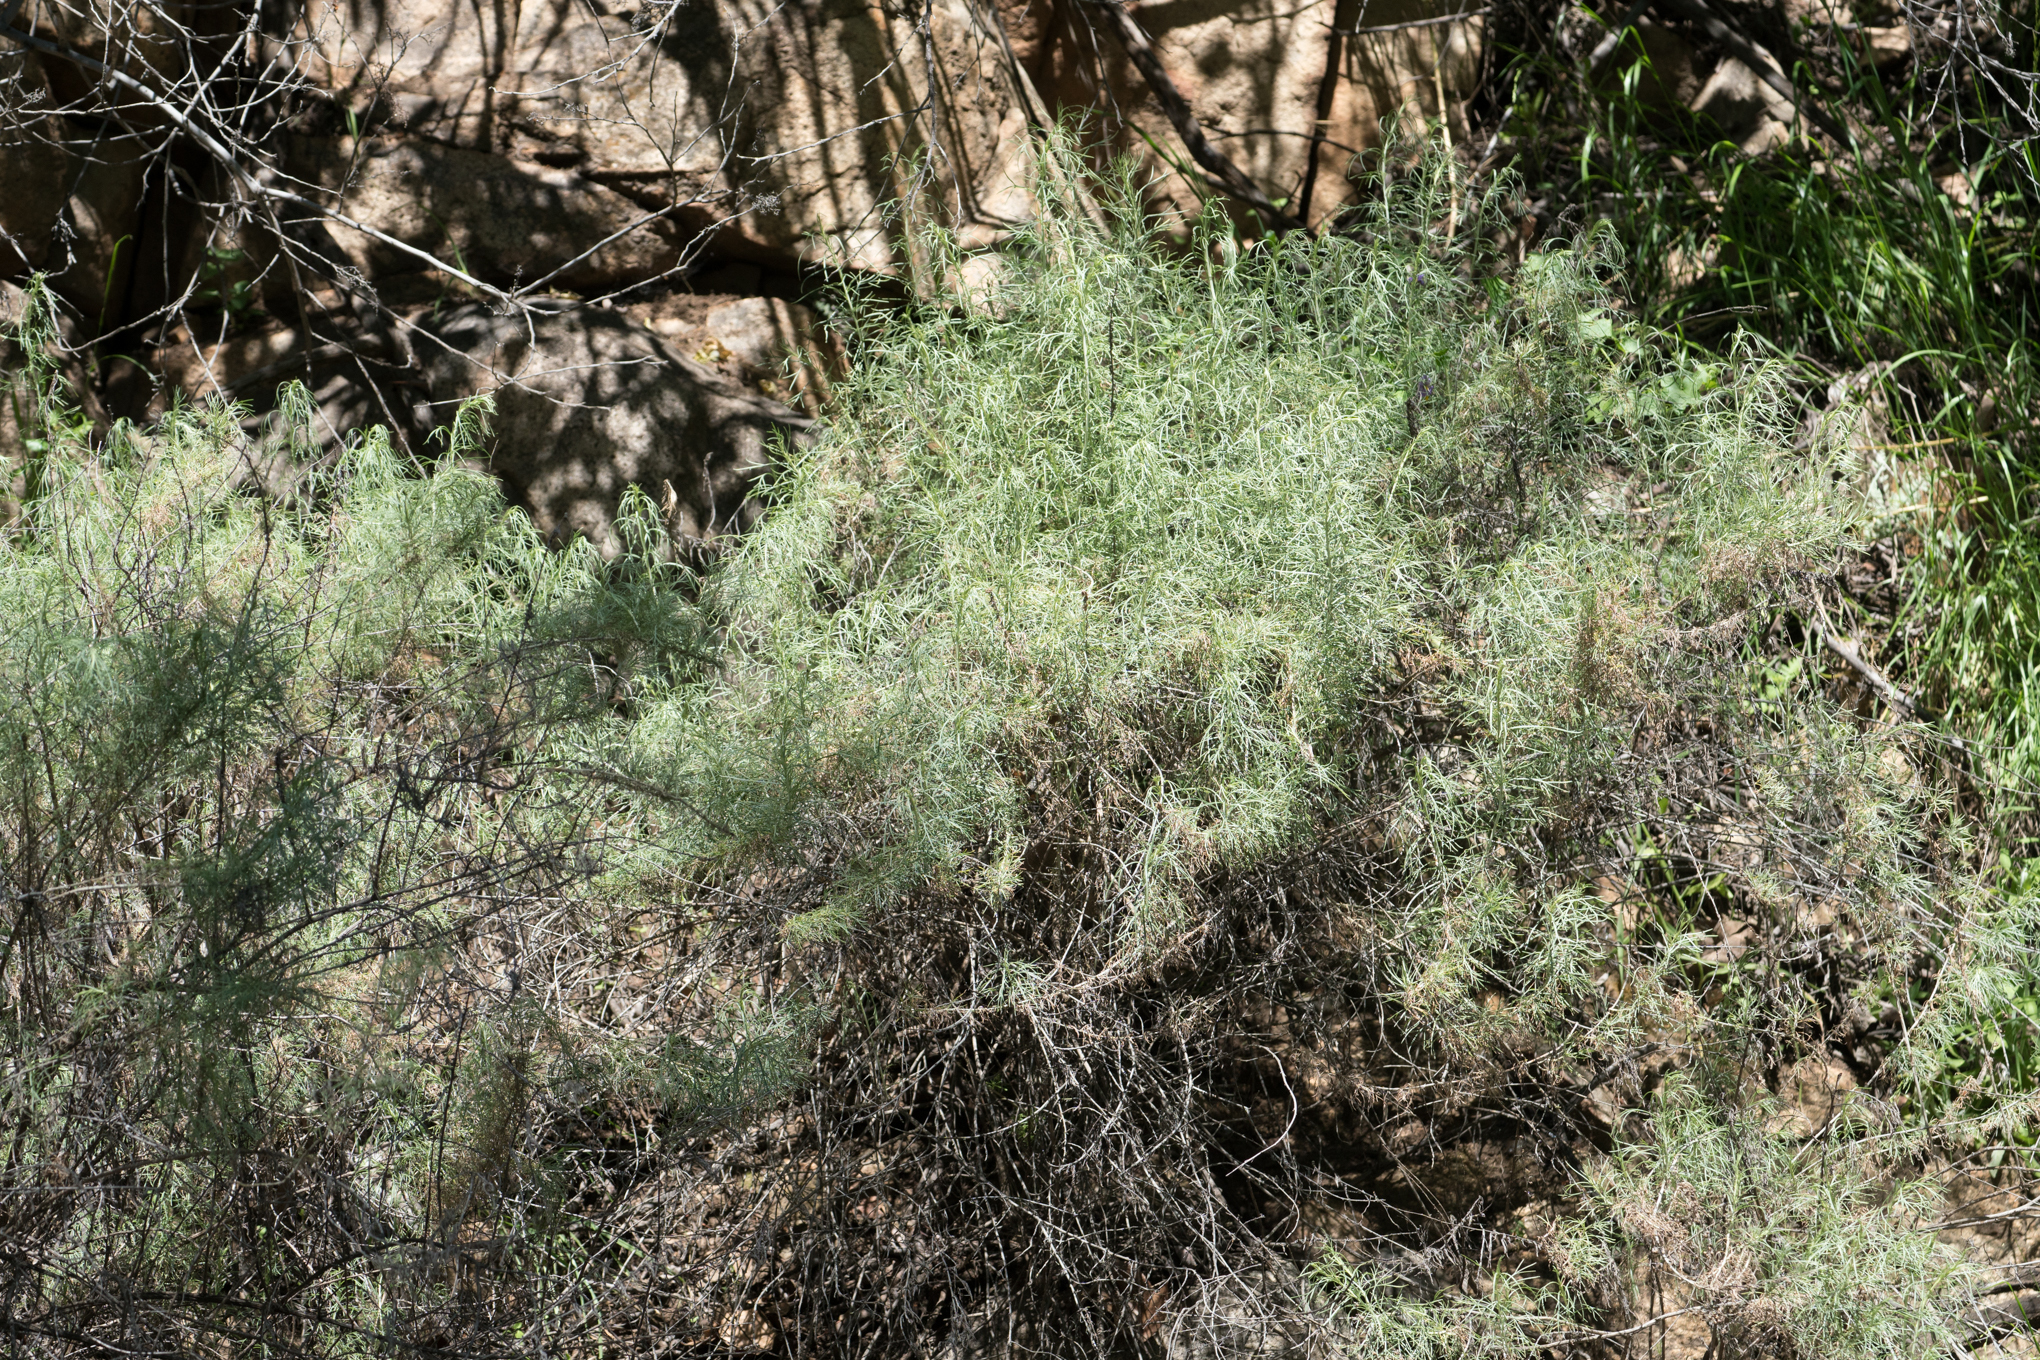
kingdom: Plantae
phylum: Tracheophyta
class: Magnoliopsida
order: Asterales
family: Asteraceae
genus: Artemisia
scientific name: Artemisia californica
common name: California sagebrush
